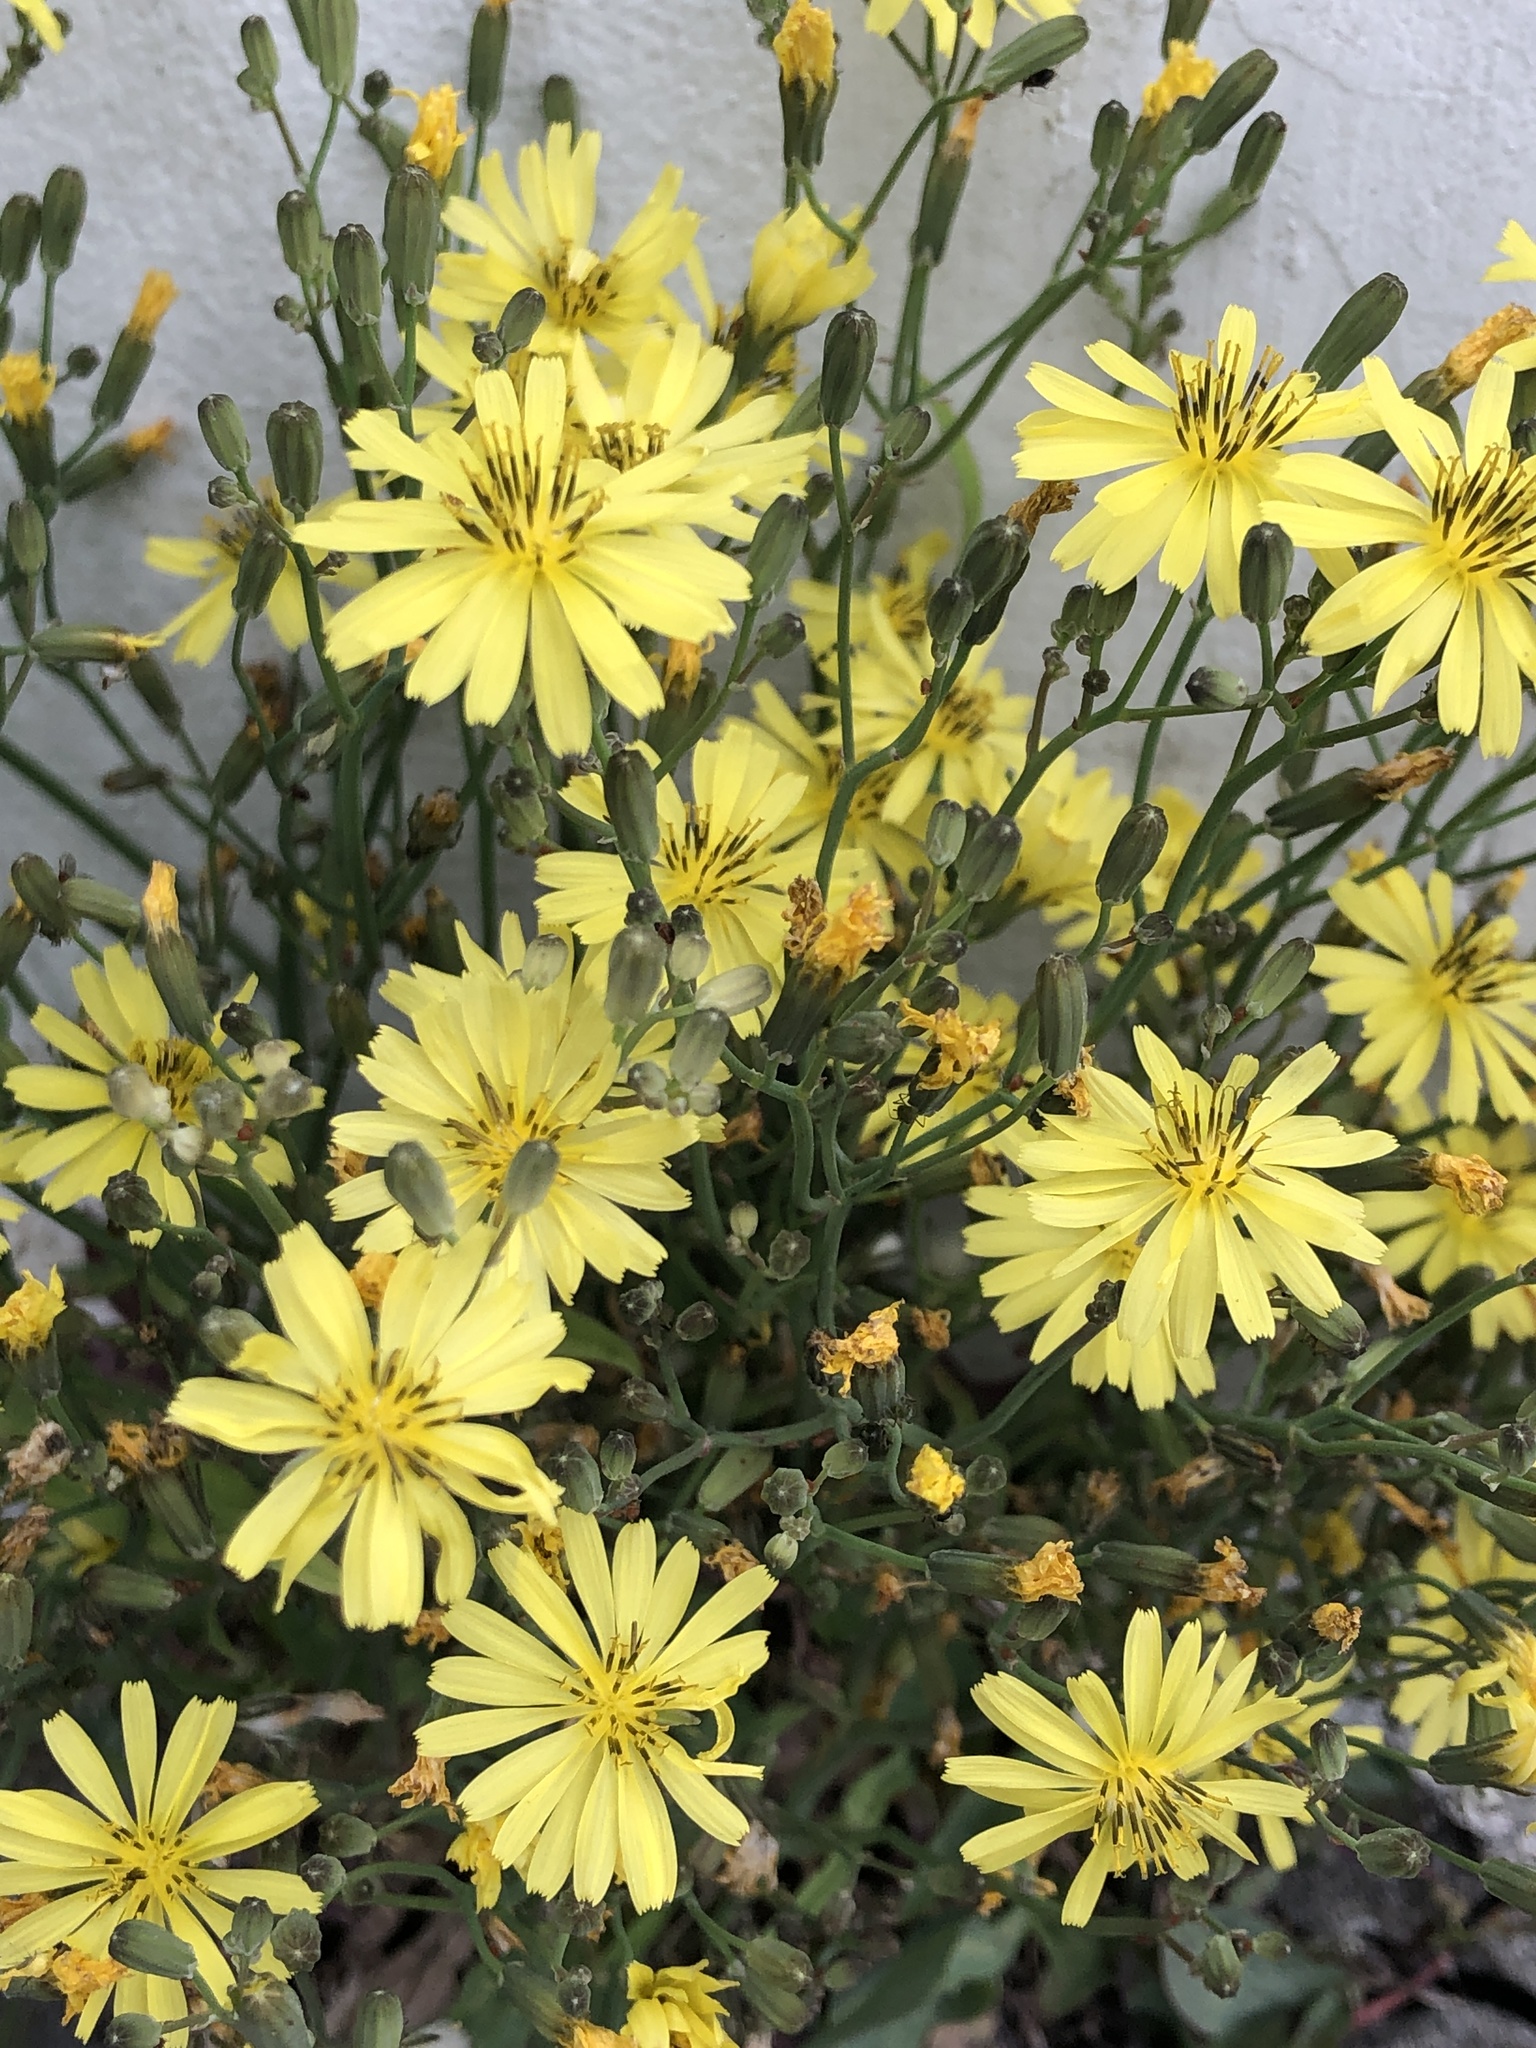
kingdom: Plantae
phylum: Tracheophyta
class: Magnoliopsida
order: Asterales
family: Asteraceae
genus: Ixeris
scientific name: Ixeris chinensis
